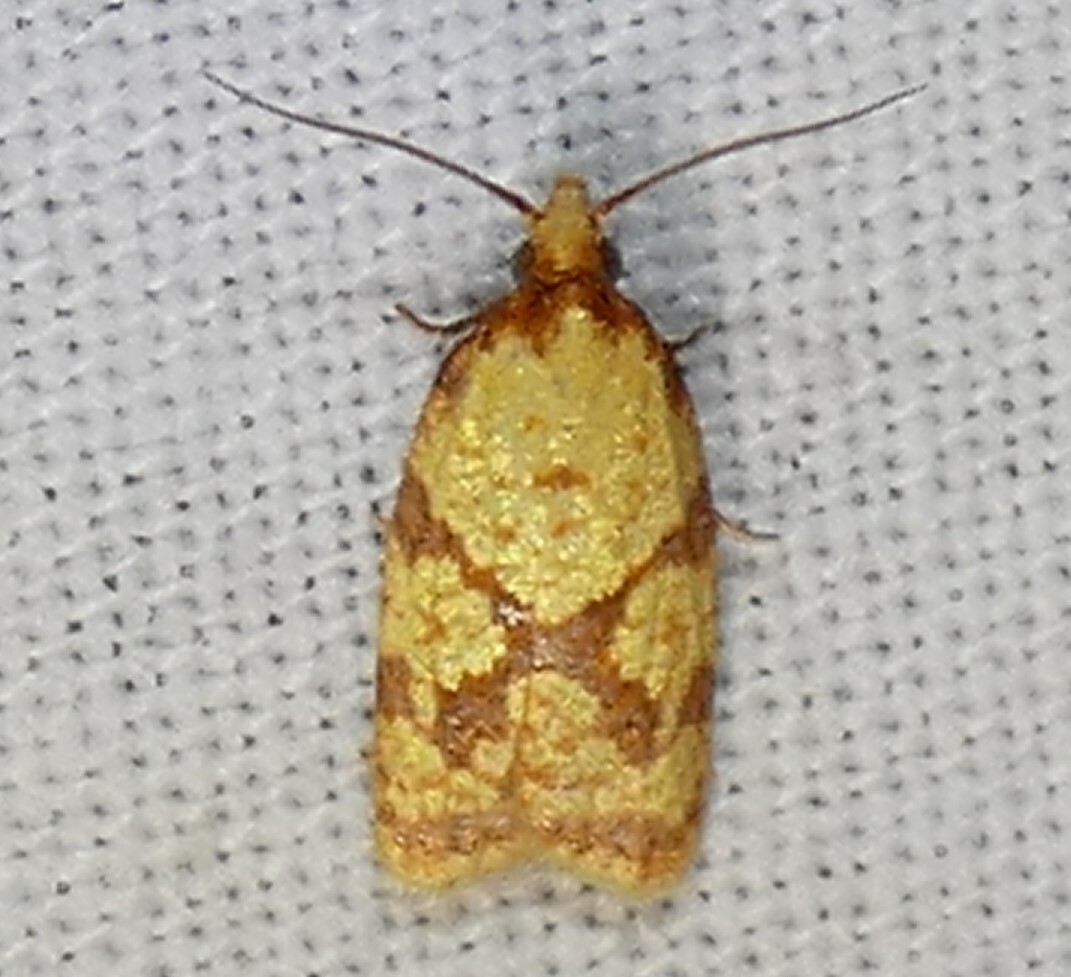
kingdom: Animalia
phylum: Arthropoda
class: Insecta
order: Lepidoptera
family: Tortricidae
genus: Sparganothis
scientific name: Sparganothis sulfureana
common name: Sparganothis fruitworm moth
